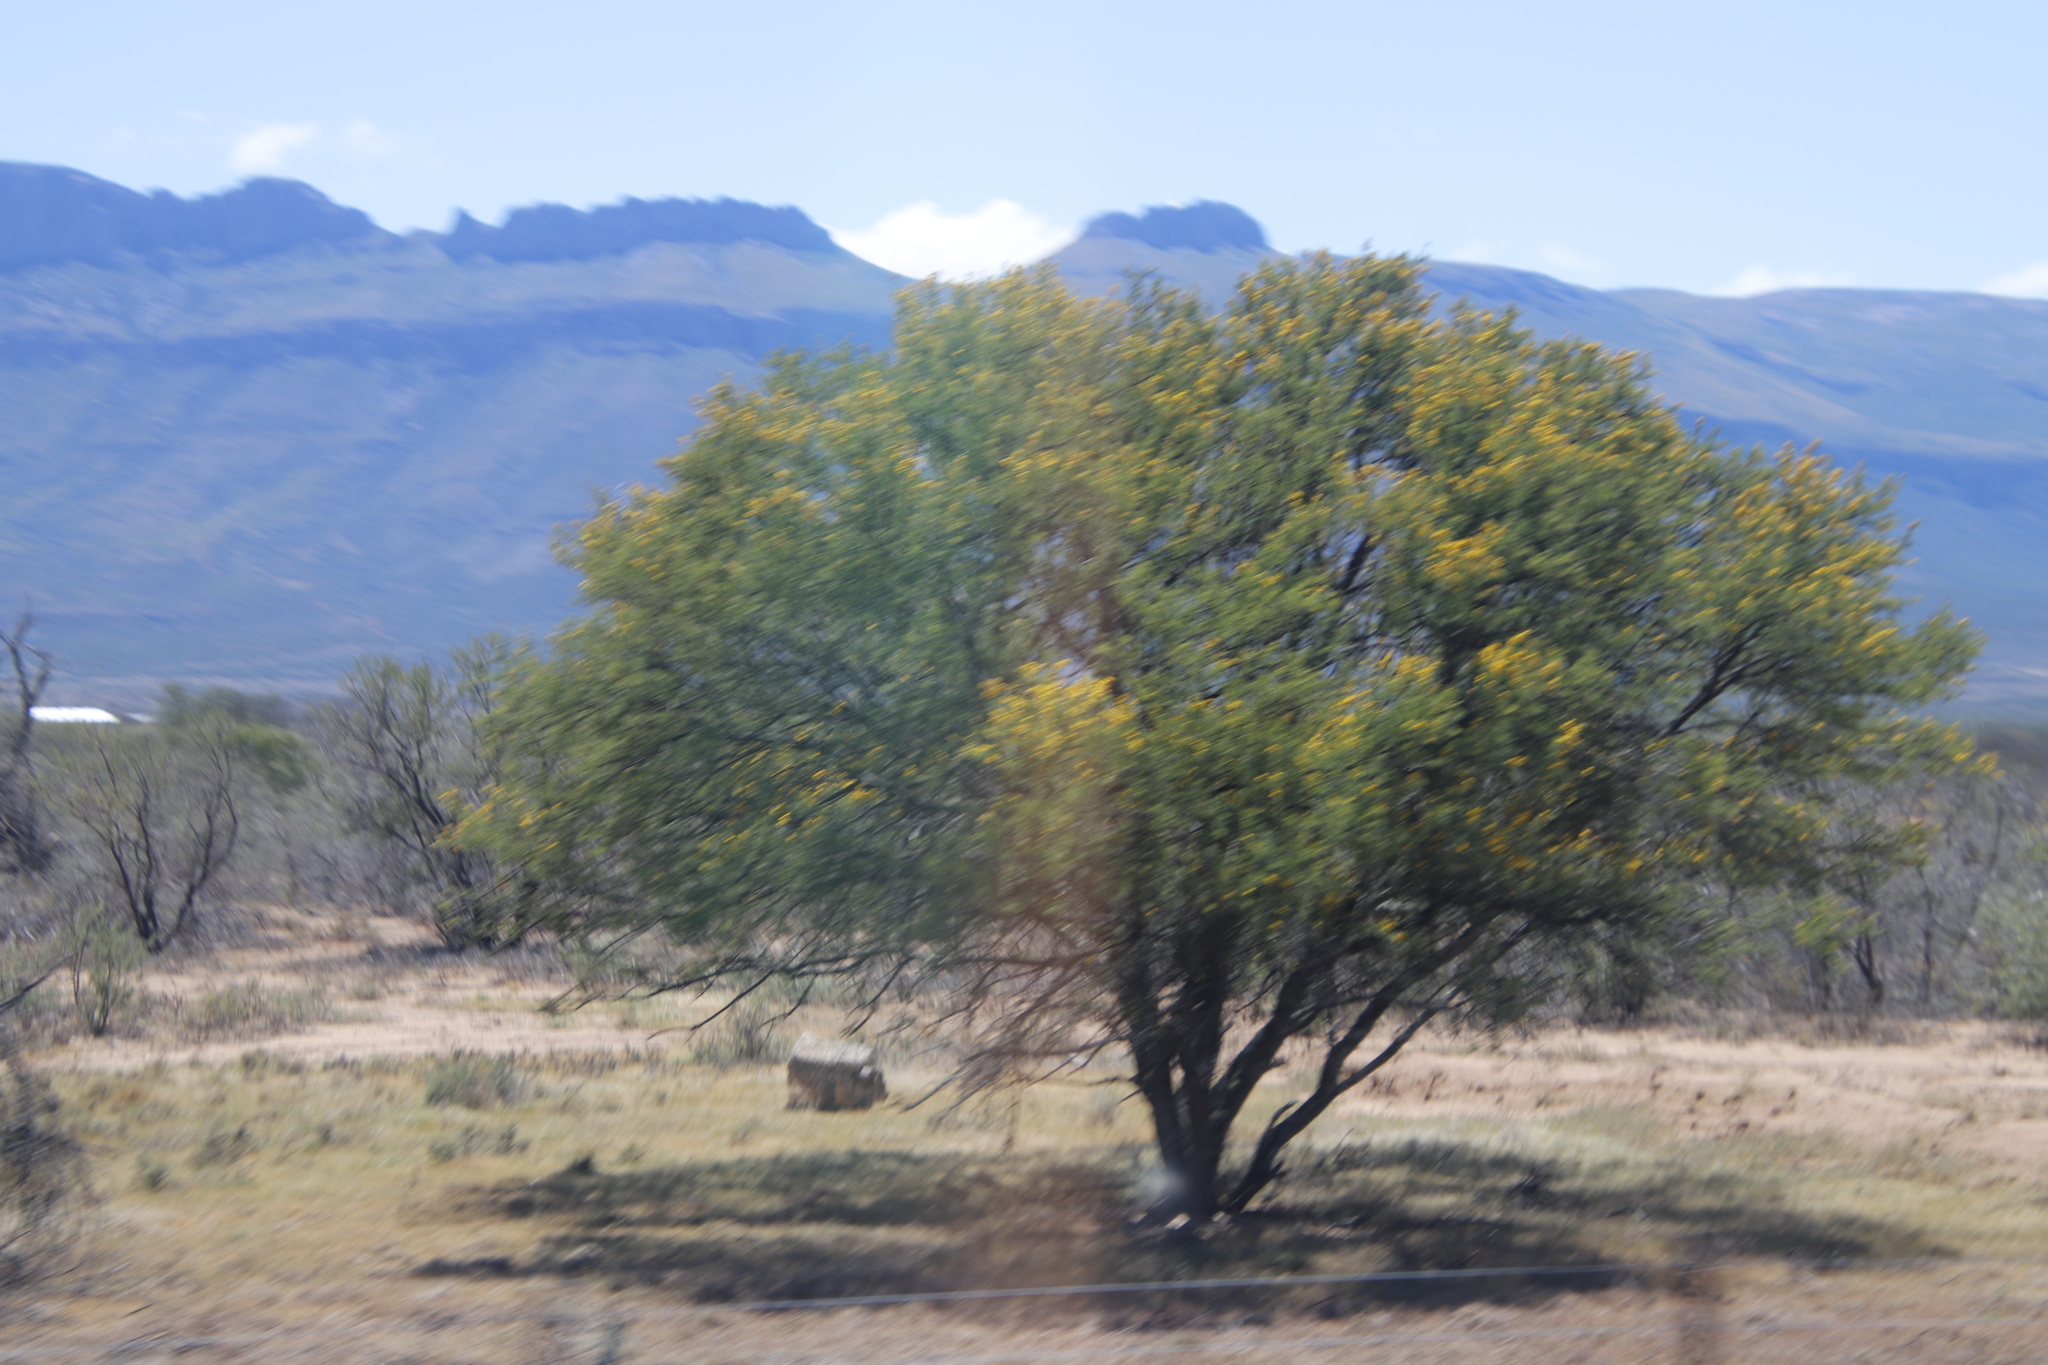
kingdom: Plantae
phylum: Tracheophyta
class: Magnoliopsida
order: Fabales
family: Fabaceae
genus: Vachellia
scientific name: Vachellia karroo
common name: Sweet thorn
